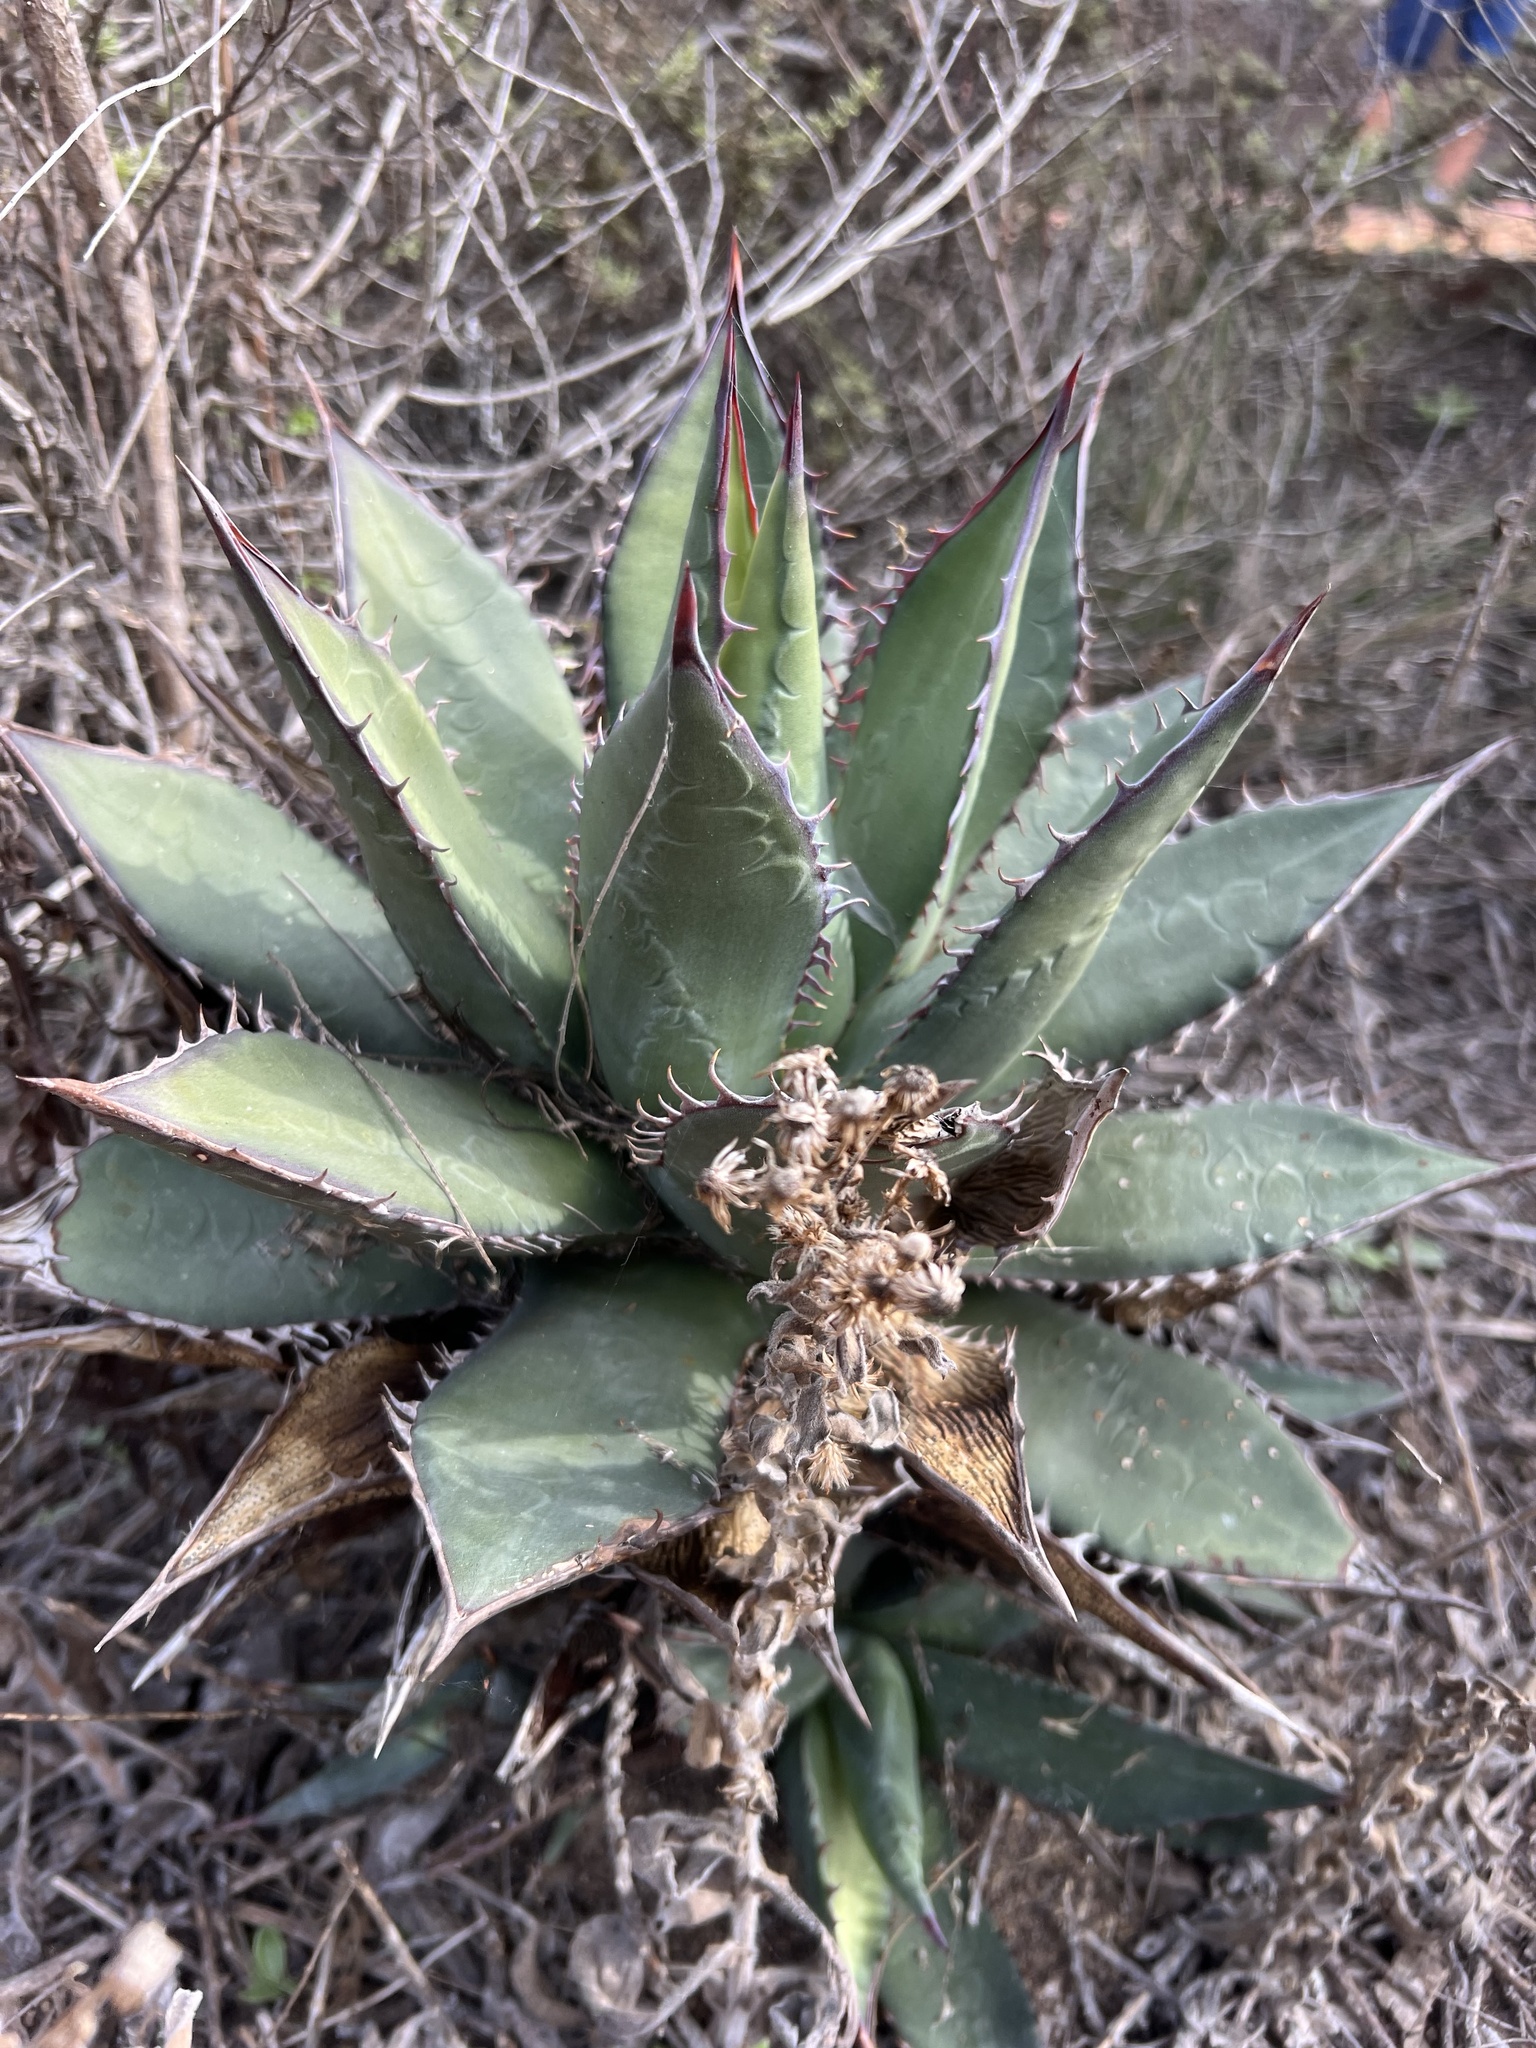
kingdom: Plantae
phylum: Tracheophyta
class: Liliopsida
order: Asparagales
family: Asparagaceae
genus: Agave
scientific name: Agave shawii
